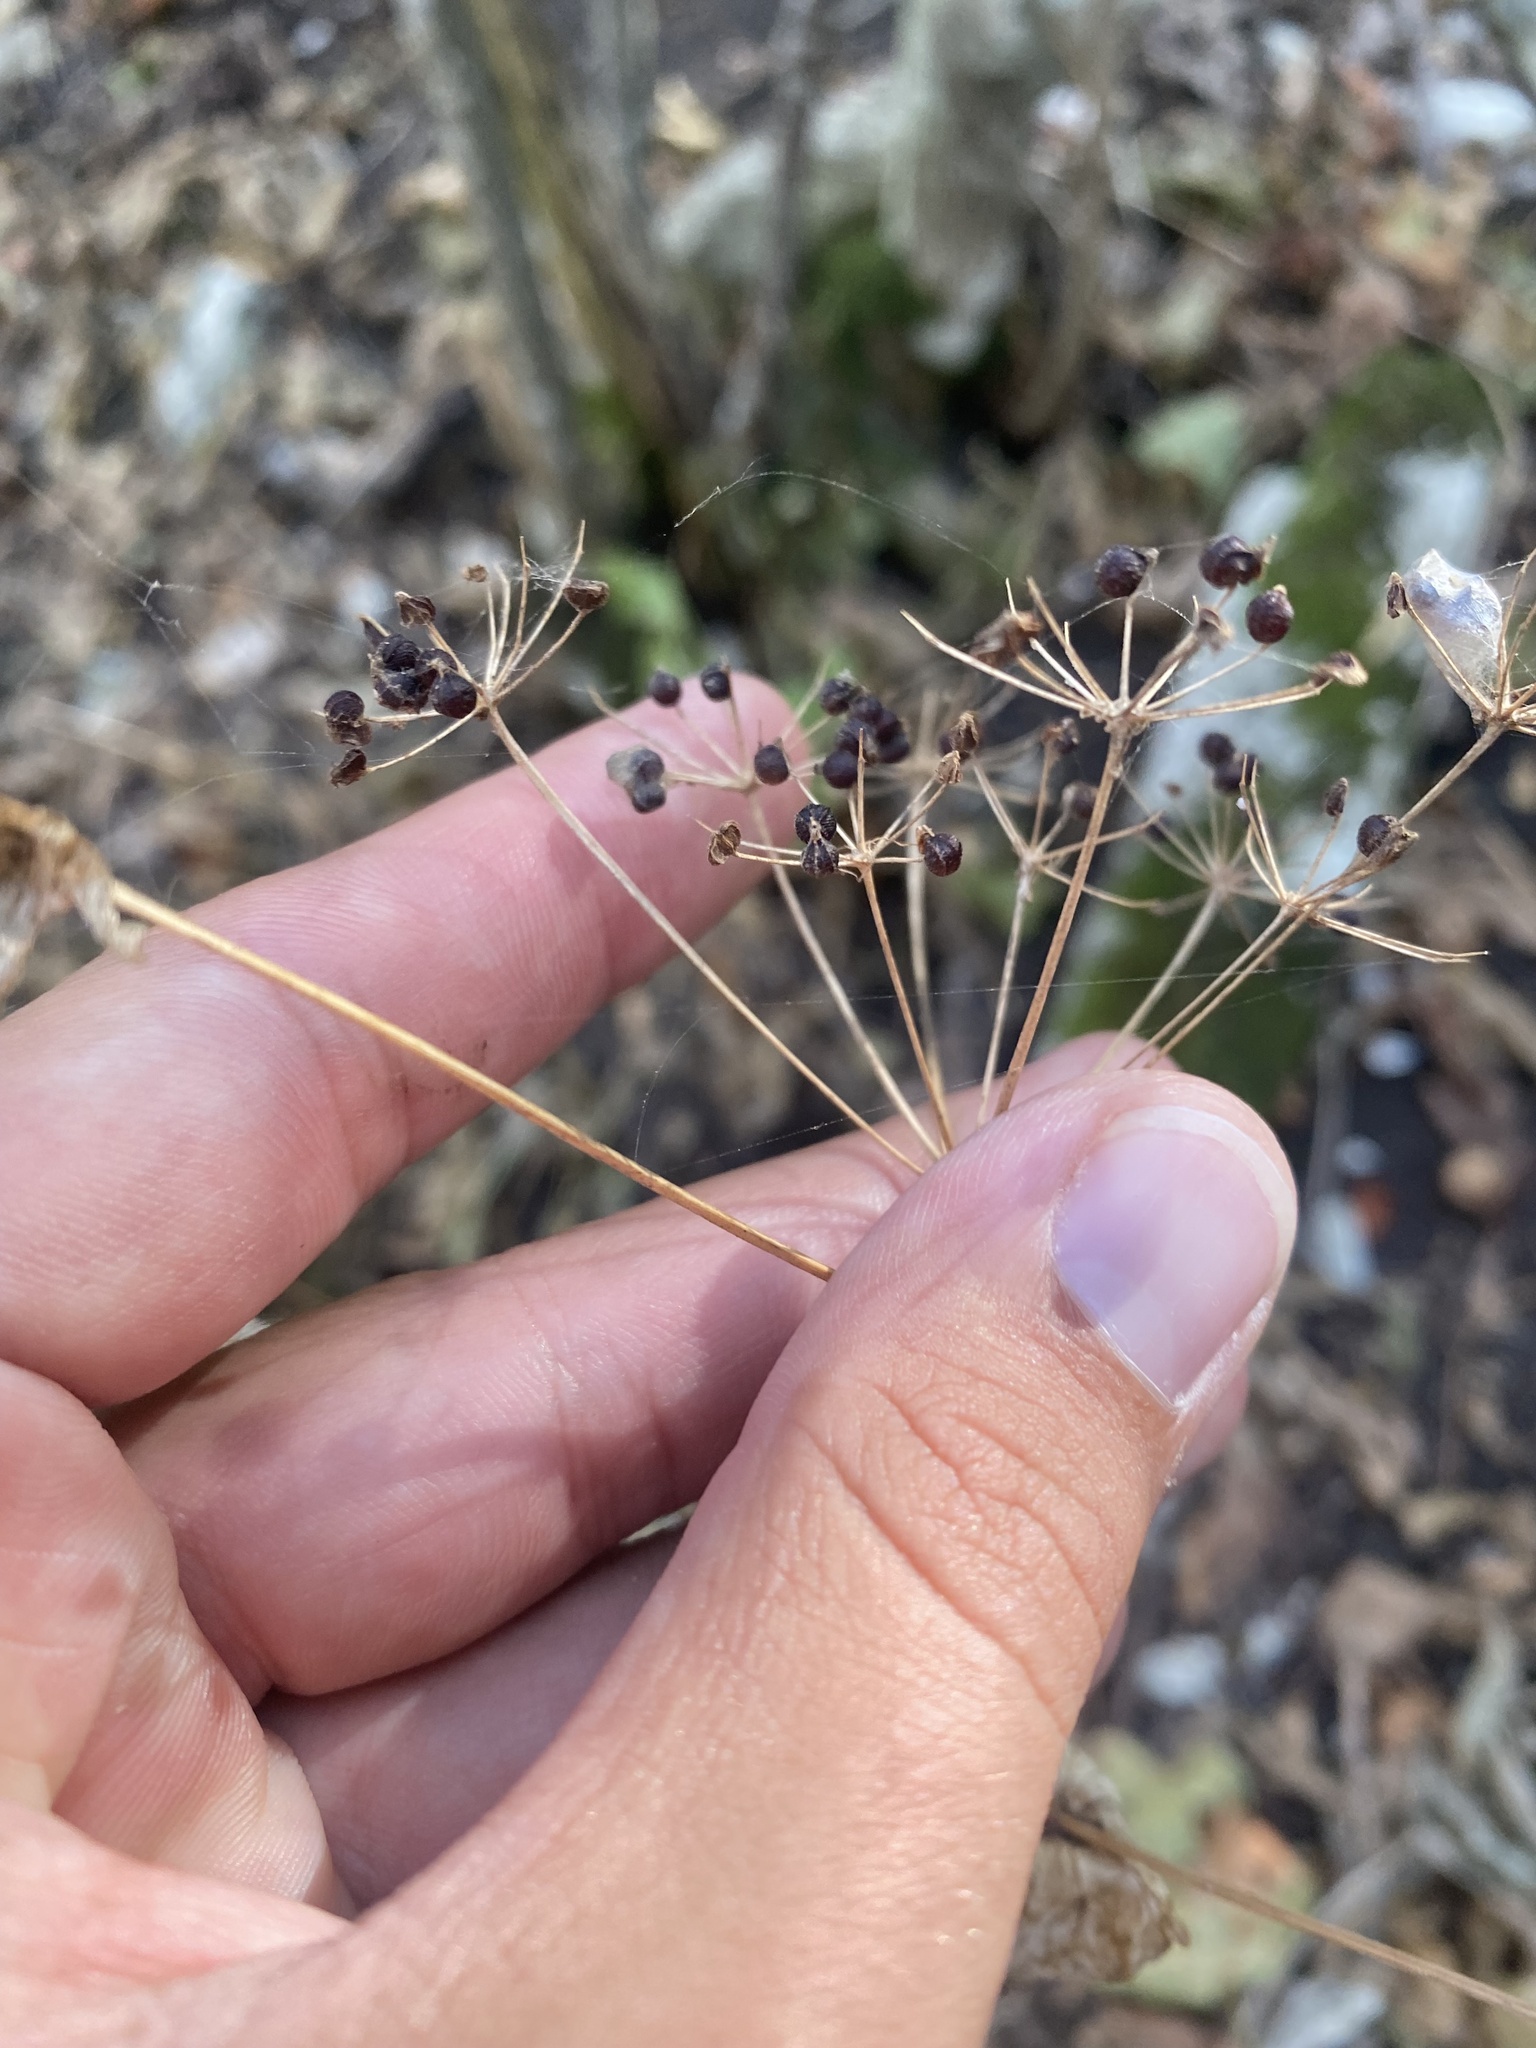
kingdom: Plantae
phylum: Tracheophyta
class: Magnoliopsida
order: Apiales
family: Apiaceae
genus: Smyrnium
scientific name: Smyrnium perfoliatum
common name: Perfoliate alexanders
